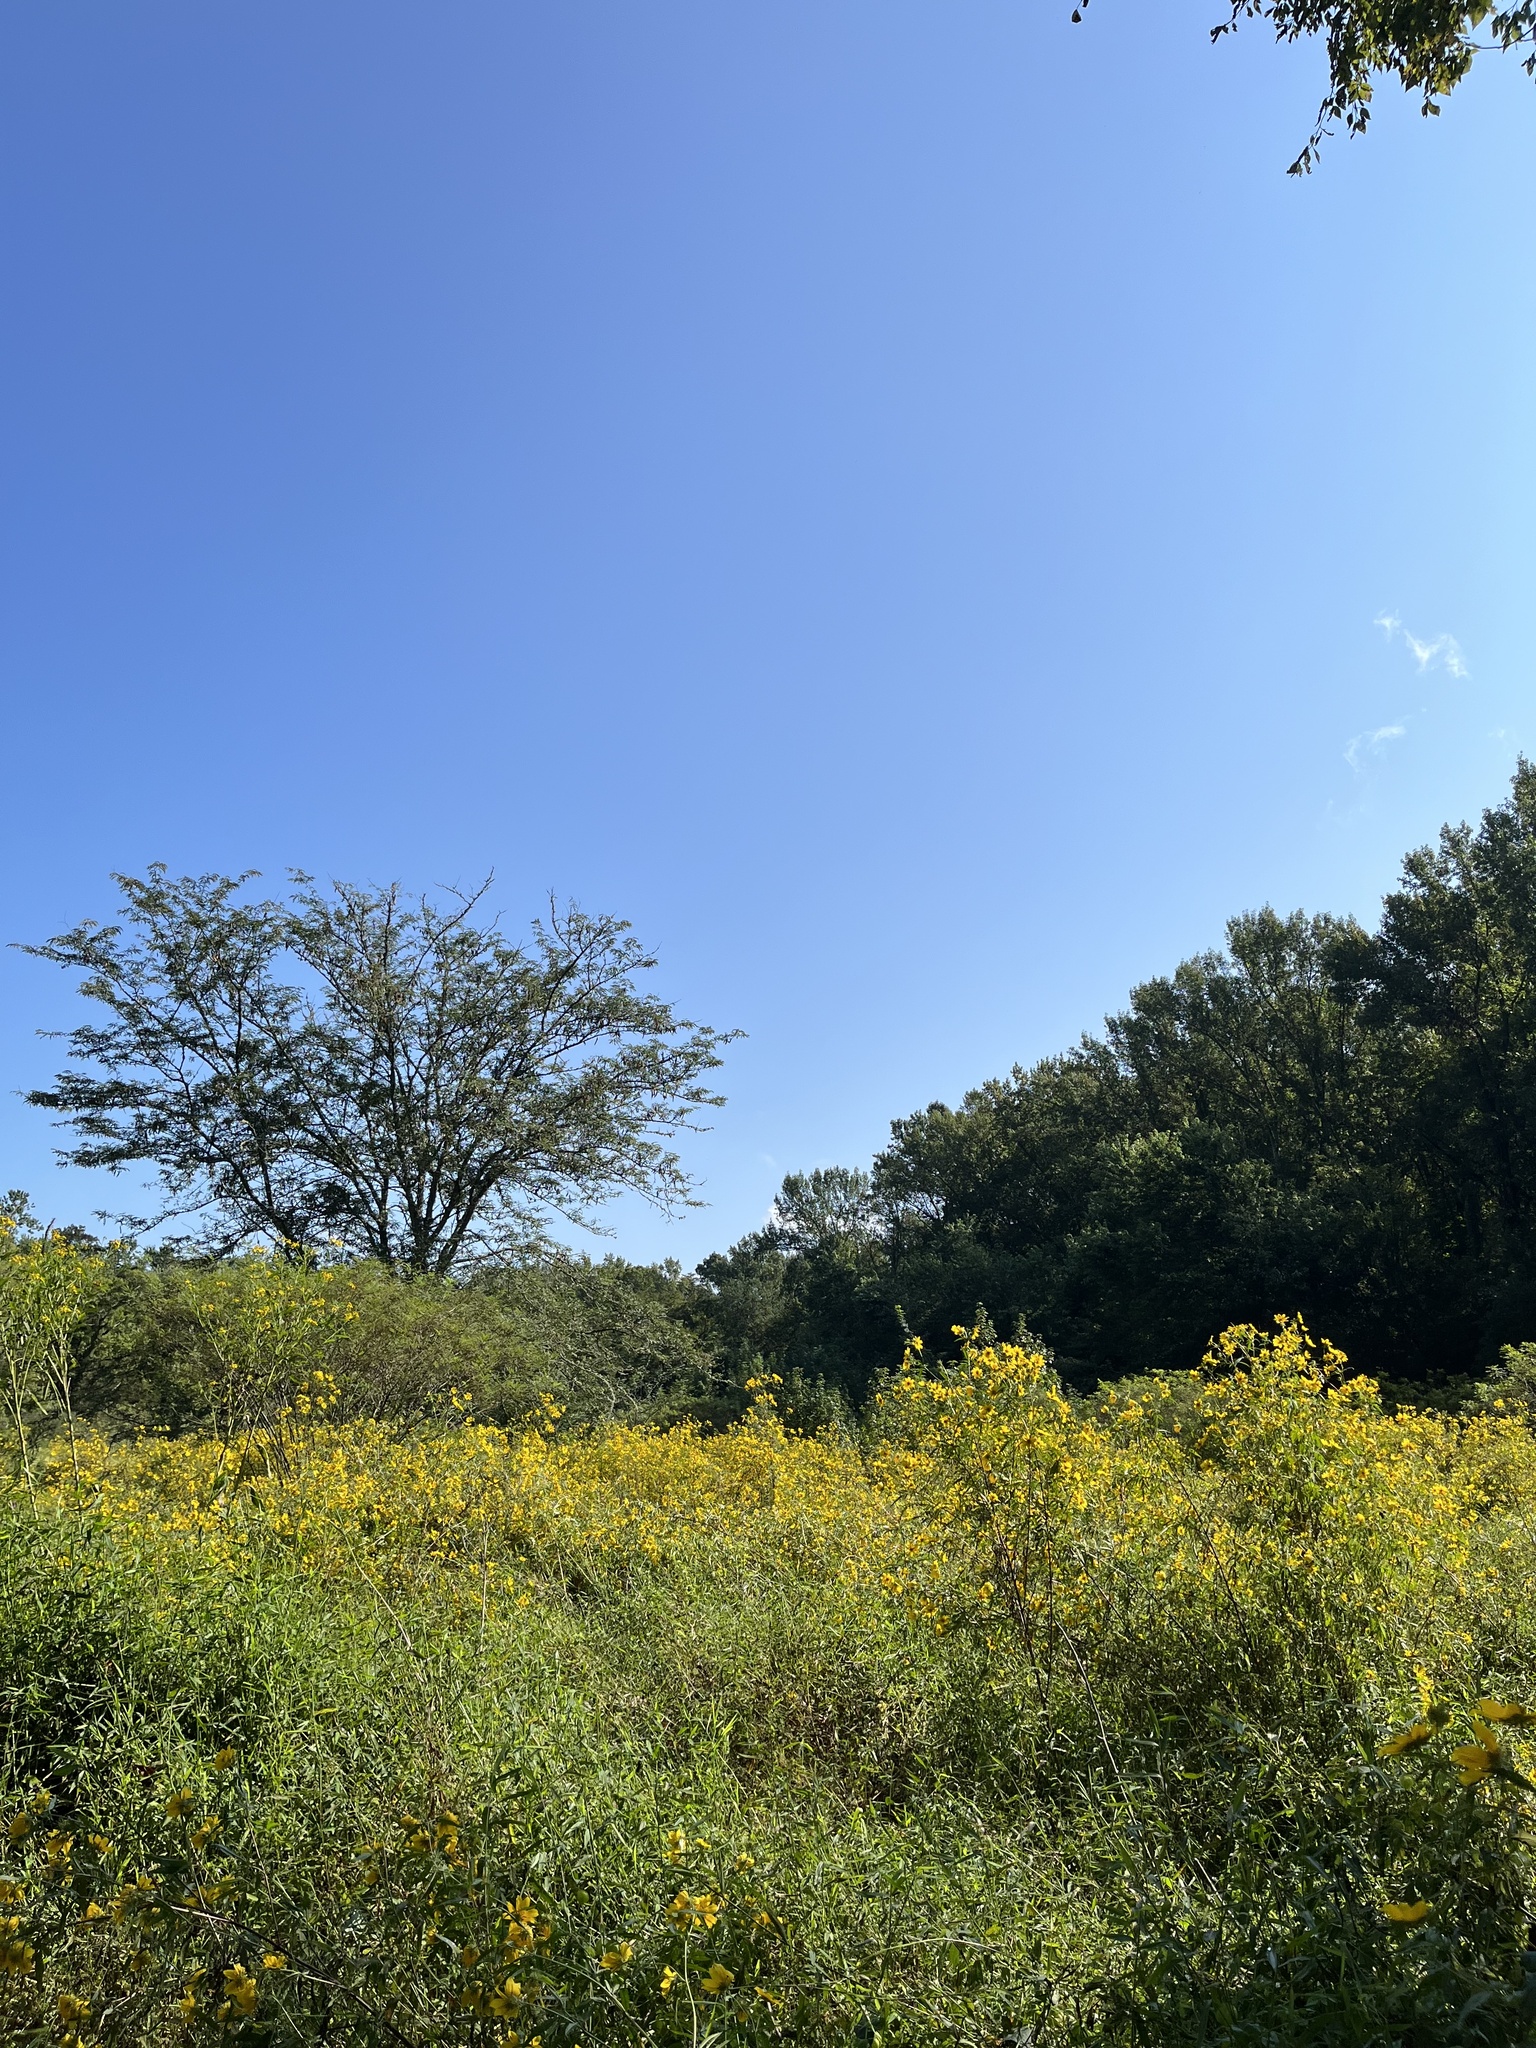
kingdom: Plantae
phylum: Tracheophyta
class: Magnoliopsida
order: Asterales
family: Asteraceae
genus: Bidens
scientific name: Bidens polylepis
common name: Awnless beggarticks
